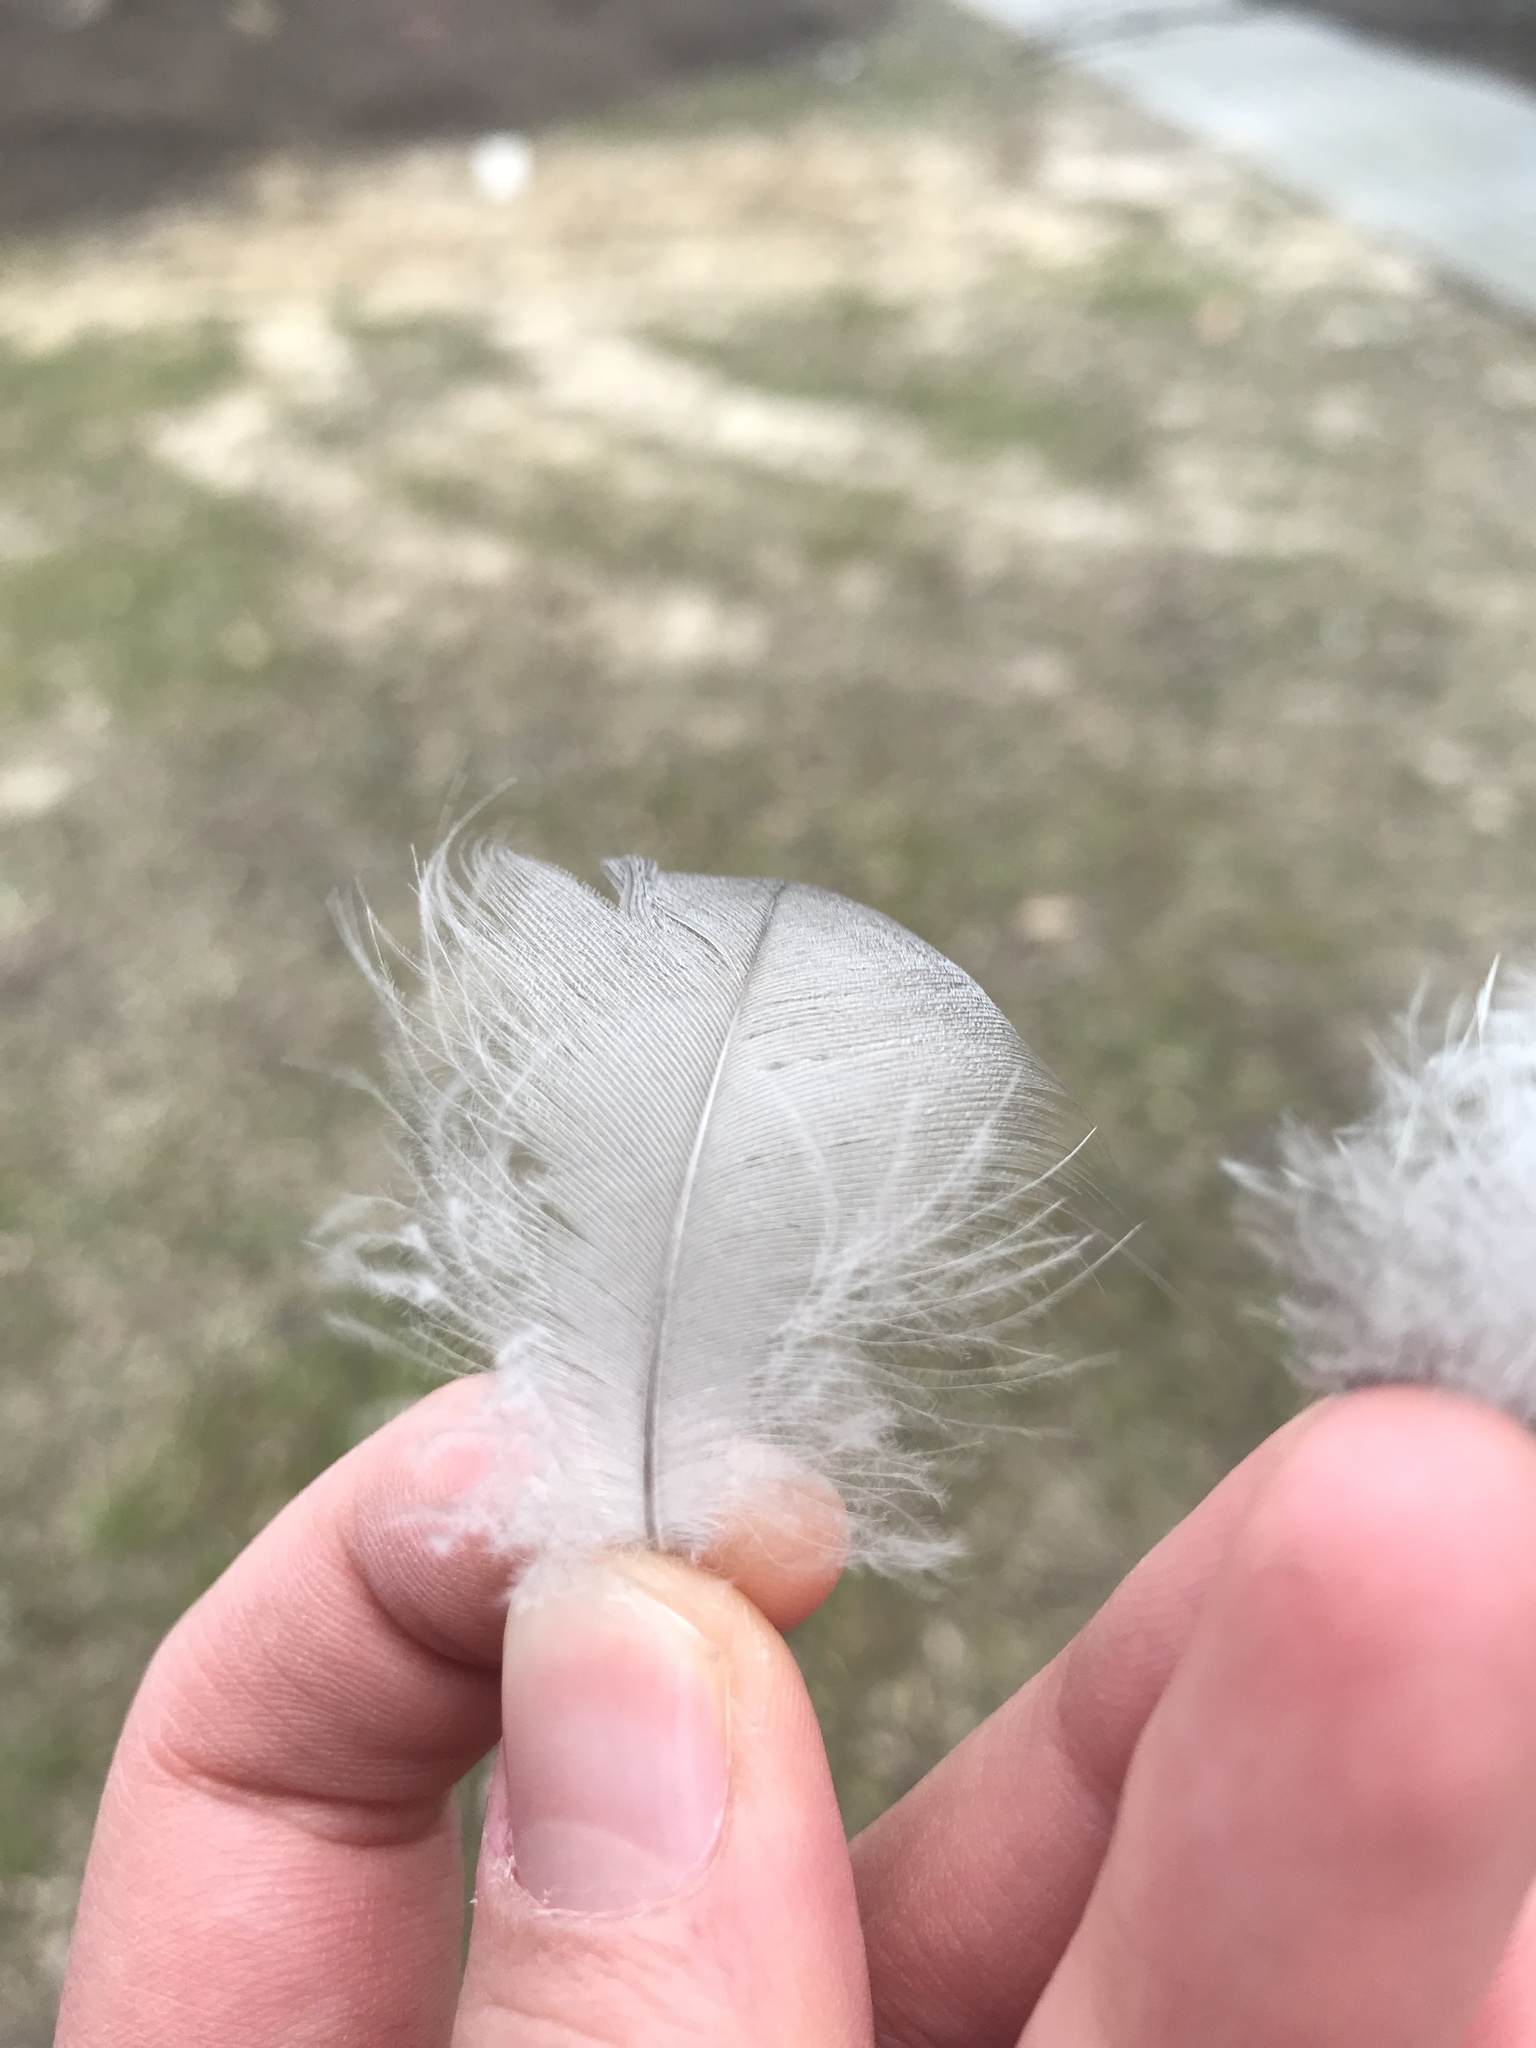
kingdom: Animalia
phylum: Chordata
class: Aves
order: Anseriformes
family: Anatidae
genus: Branta
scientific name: Branta canadensis
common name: Canada goose
